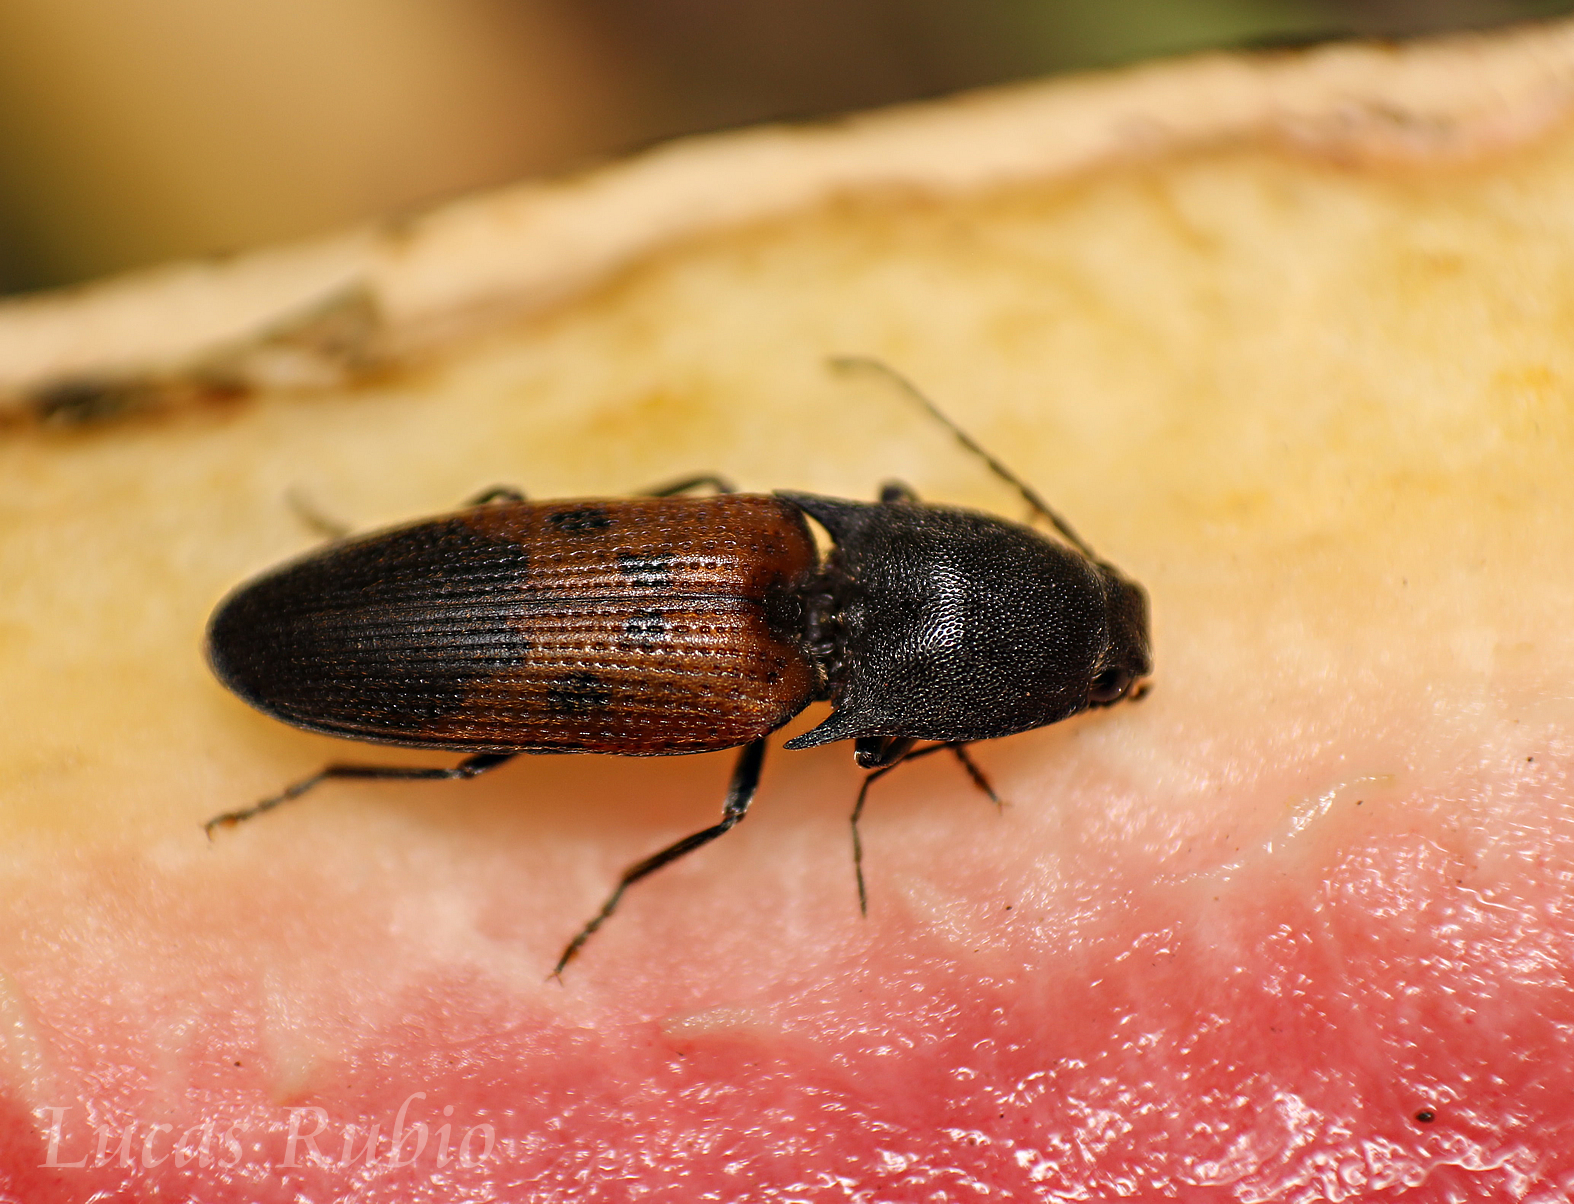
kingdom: Animalia
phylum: Arthropoda
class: Insecta
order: Coleoptera
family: Elateridae
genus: Monocrepidius
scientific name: Monocrepidius
